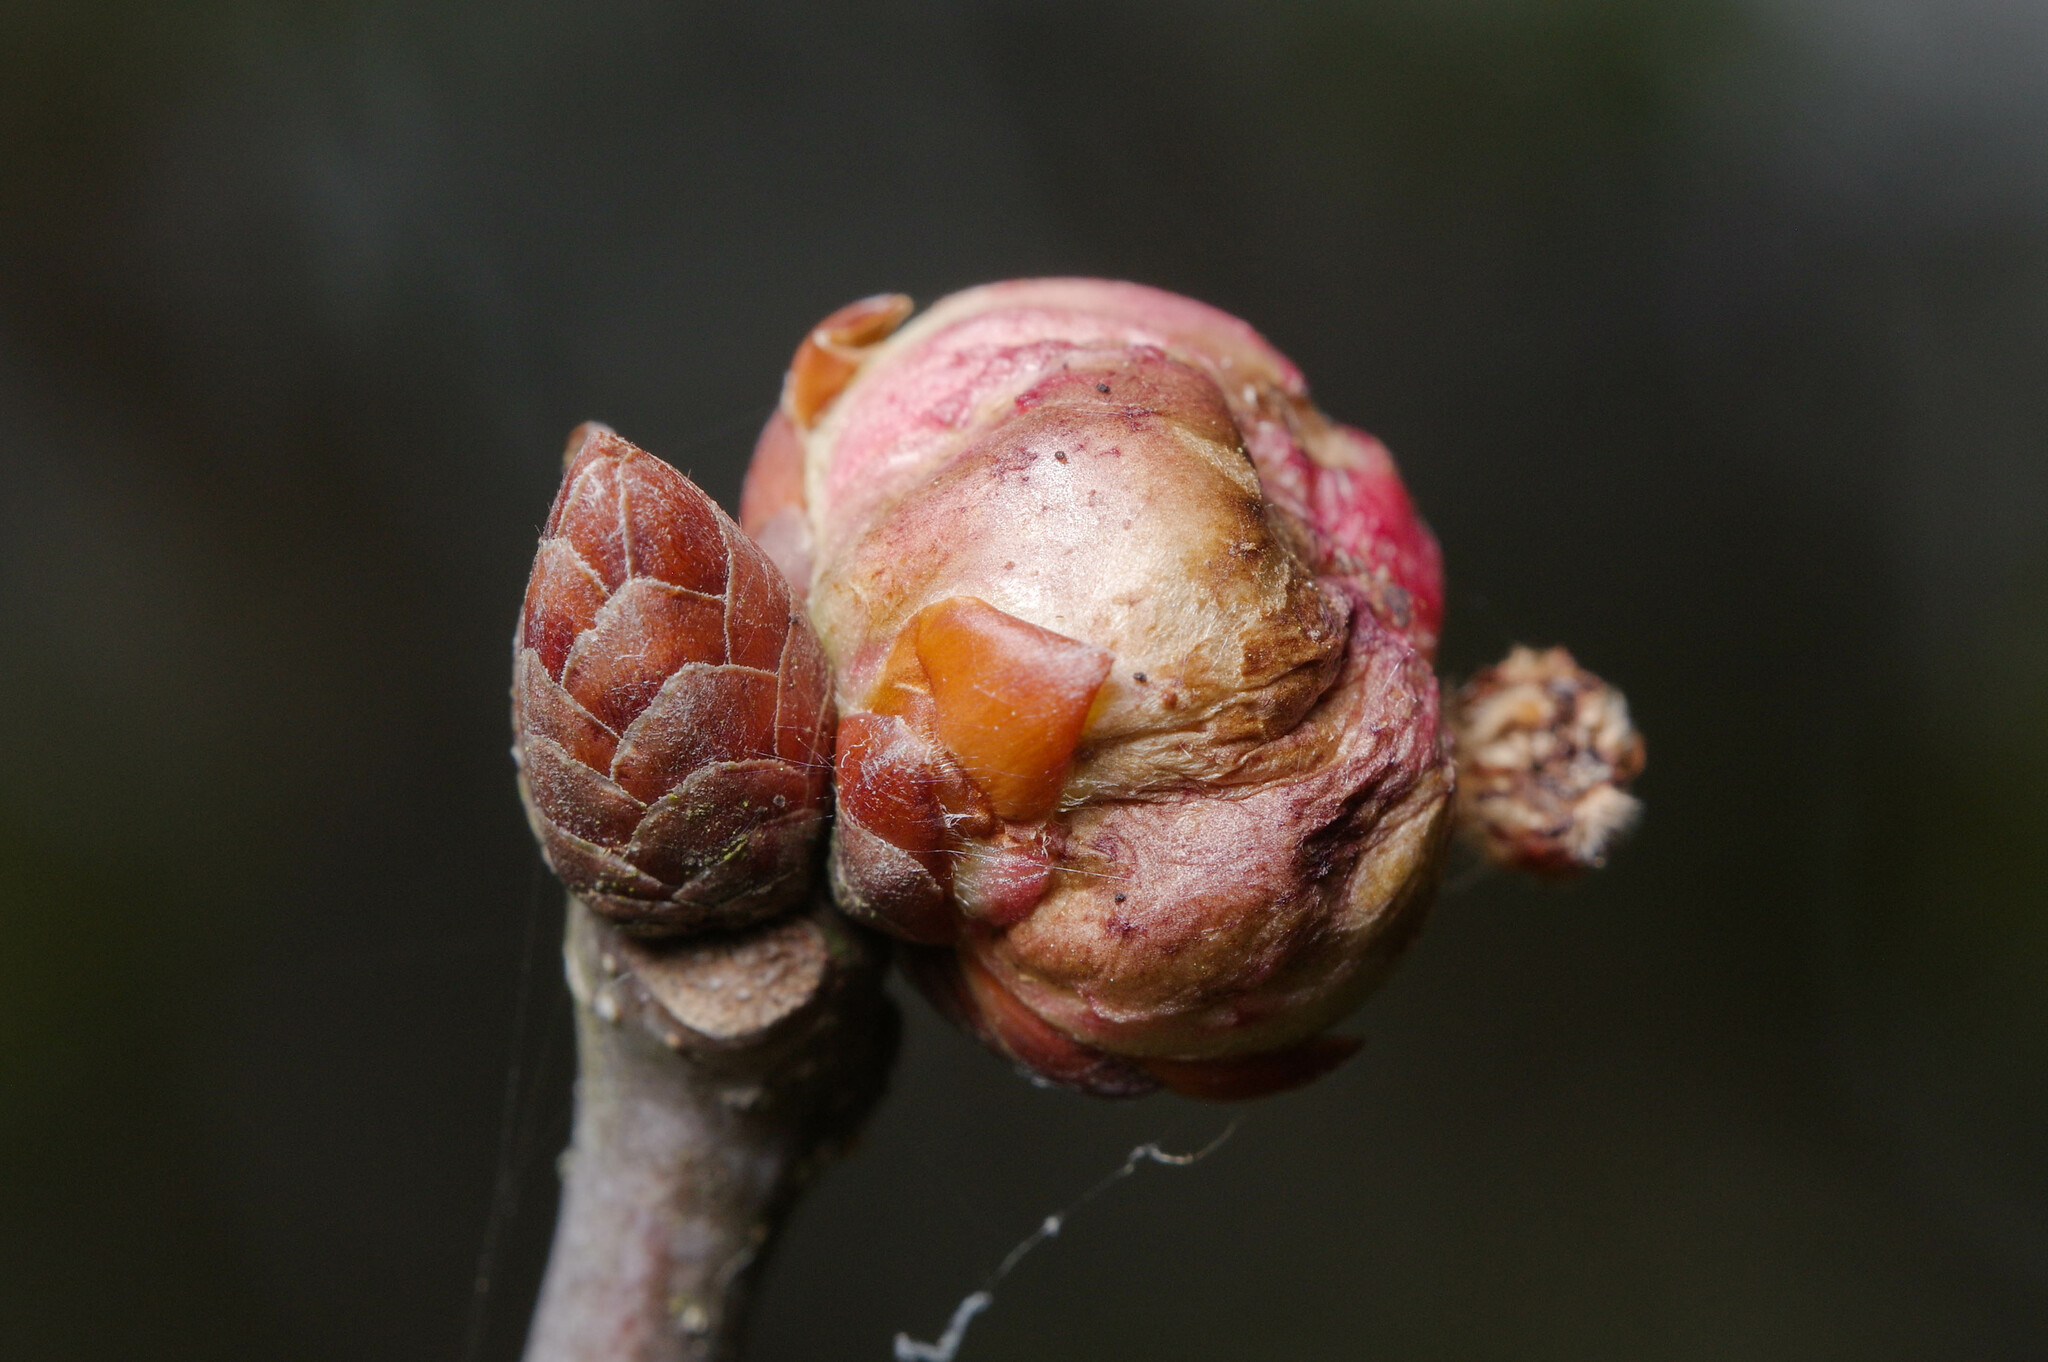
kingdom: Animalia
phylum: Arthropoda
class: Insecta
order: Hymenoptera
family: Cynipidae
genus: Biorhiza
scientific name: Biorhiza pallida
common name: Oak apple
